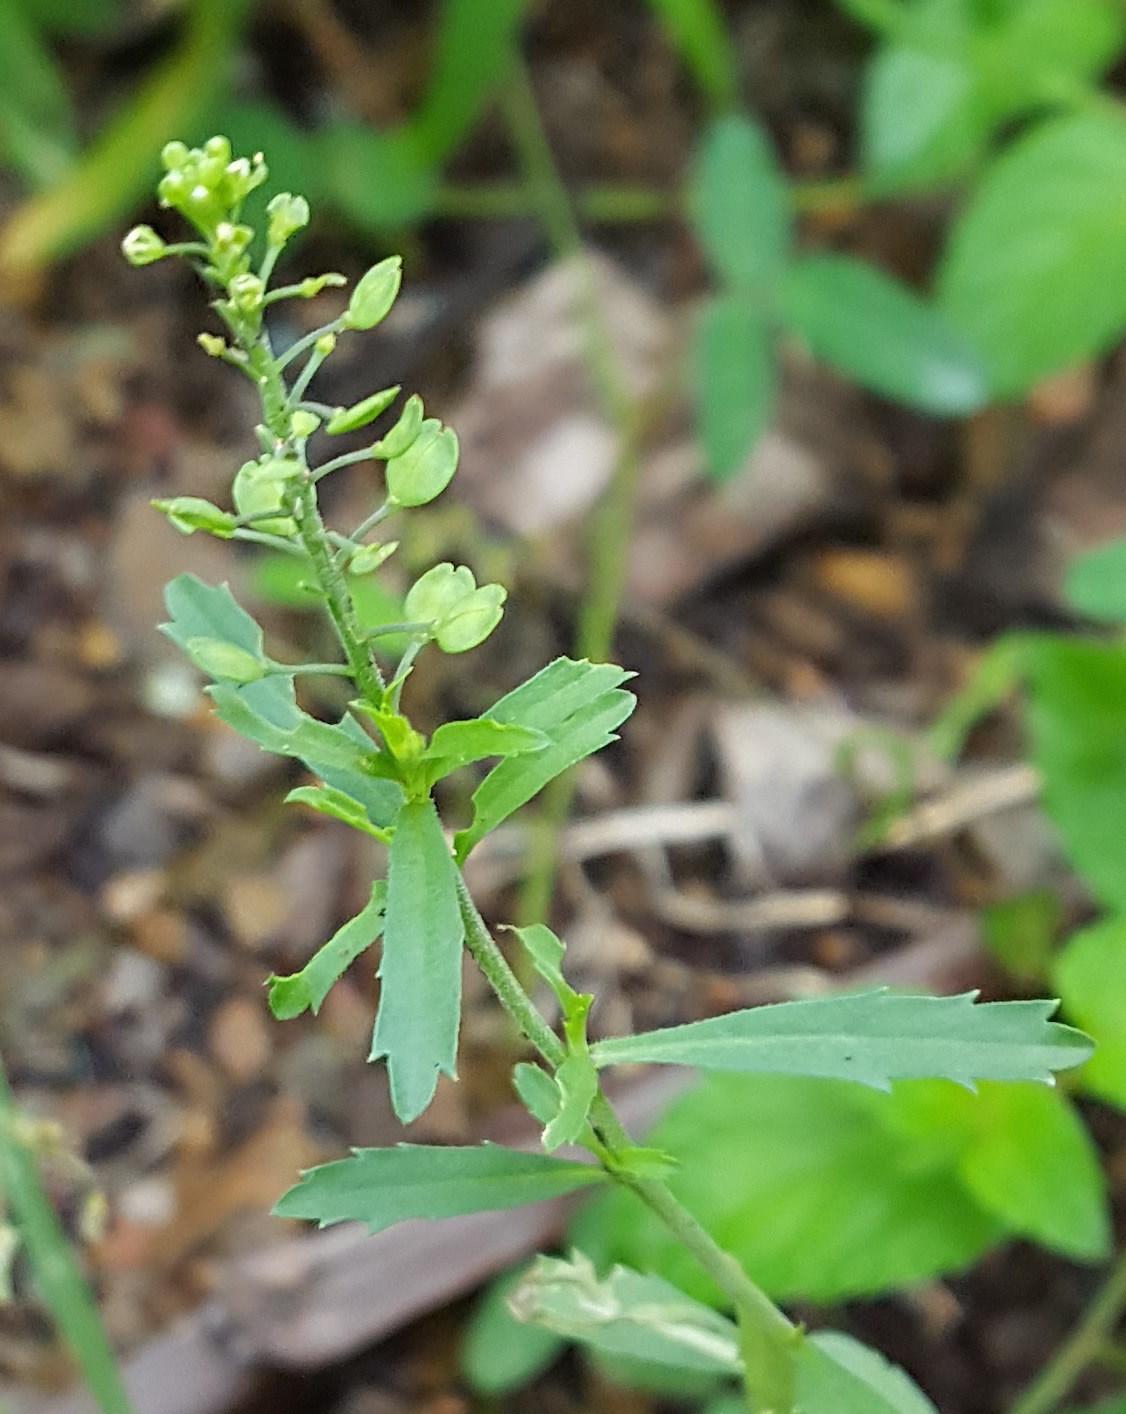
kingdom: Plantae
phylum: Tracheophyta
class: Magnoliopsida
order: Brassicales
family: Brassicaceae
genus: Lepidium
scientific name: Lepidium virginicum
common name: Least pepperwort
